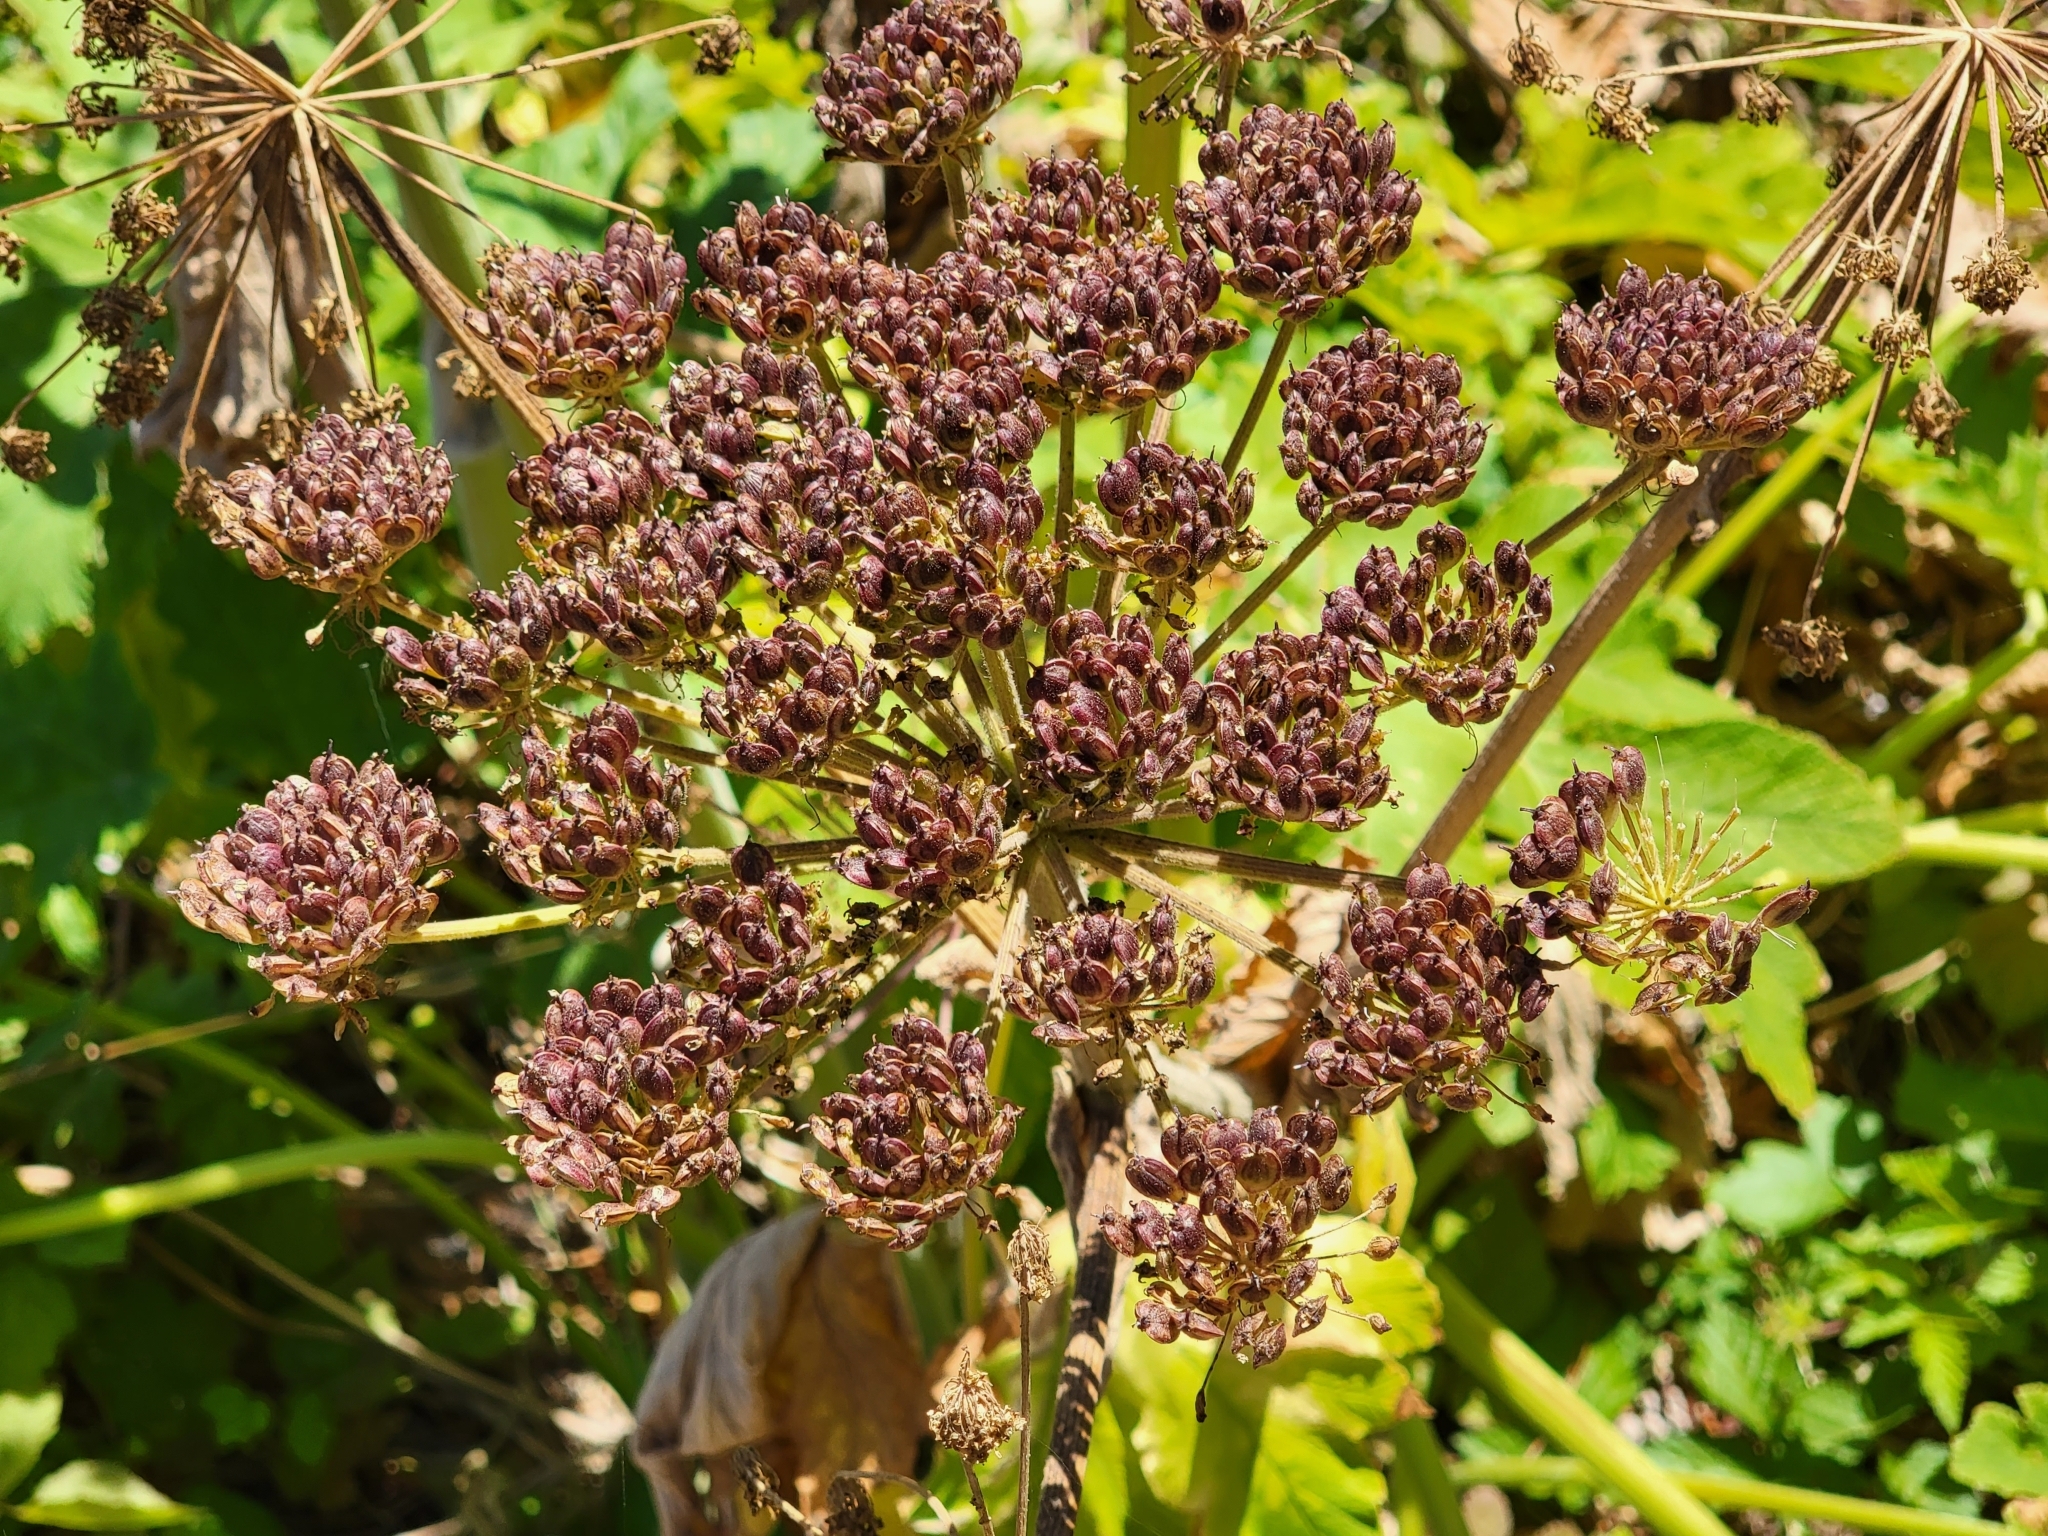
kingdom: Plantae
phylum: Tracheophyta
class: Magnoliopsida
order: Apiales
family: Apiaceae
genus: Heracleum
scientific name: Heracleum maximum
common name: American cow parsnip
